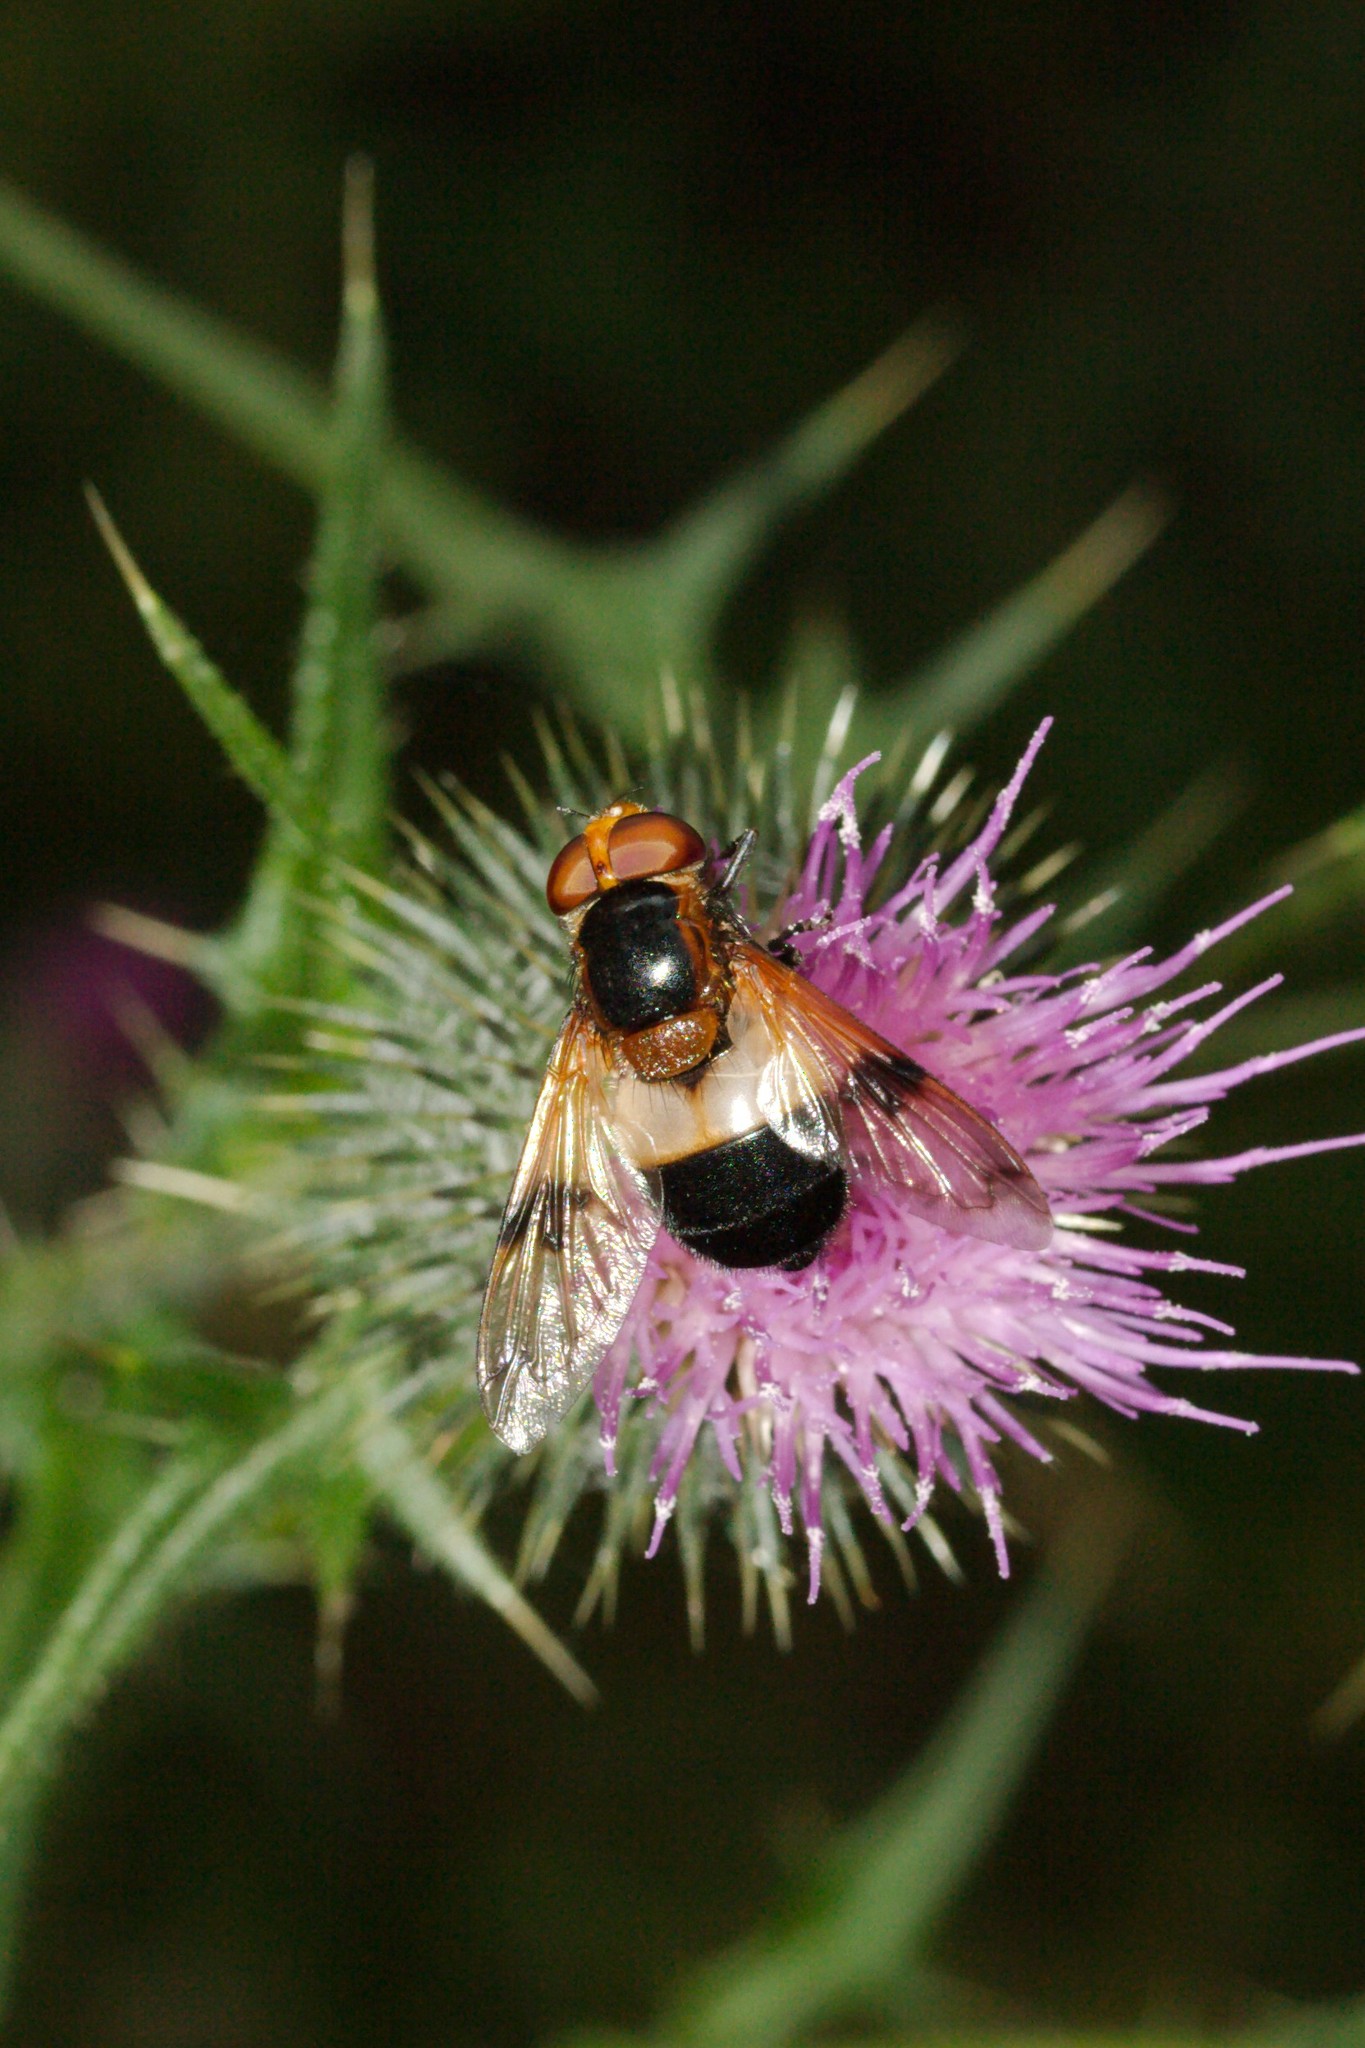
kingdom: Animalia
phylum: Arthropoda
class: Insecta
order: Diptera
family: Syrphidae
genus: Volucella
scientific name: Volucella pellucens
